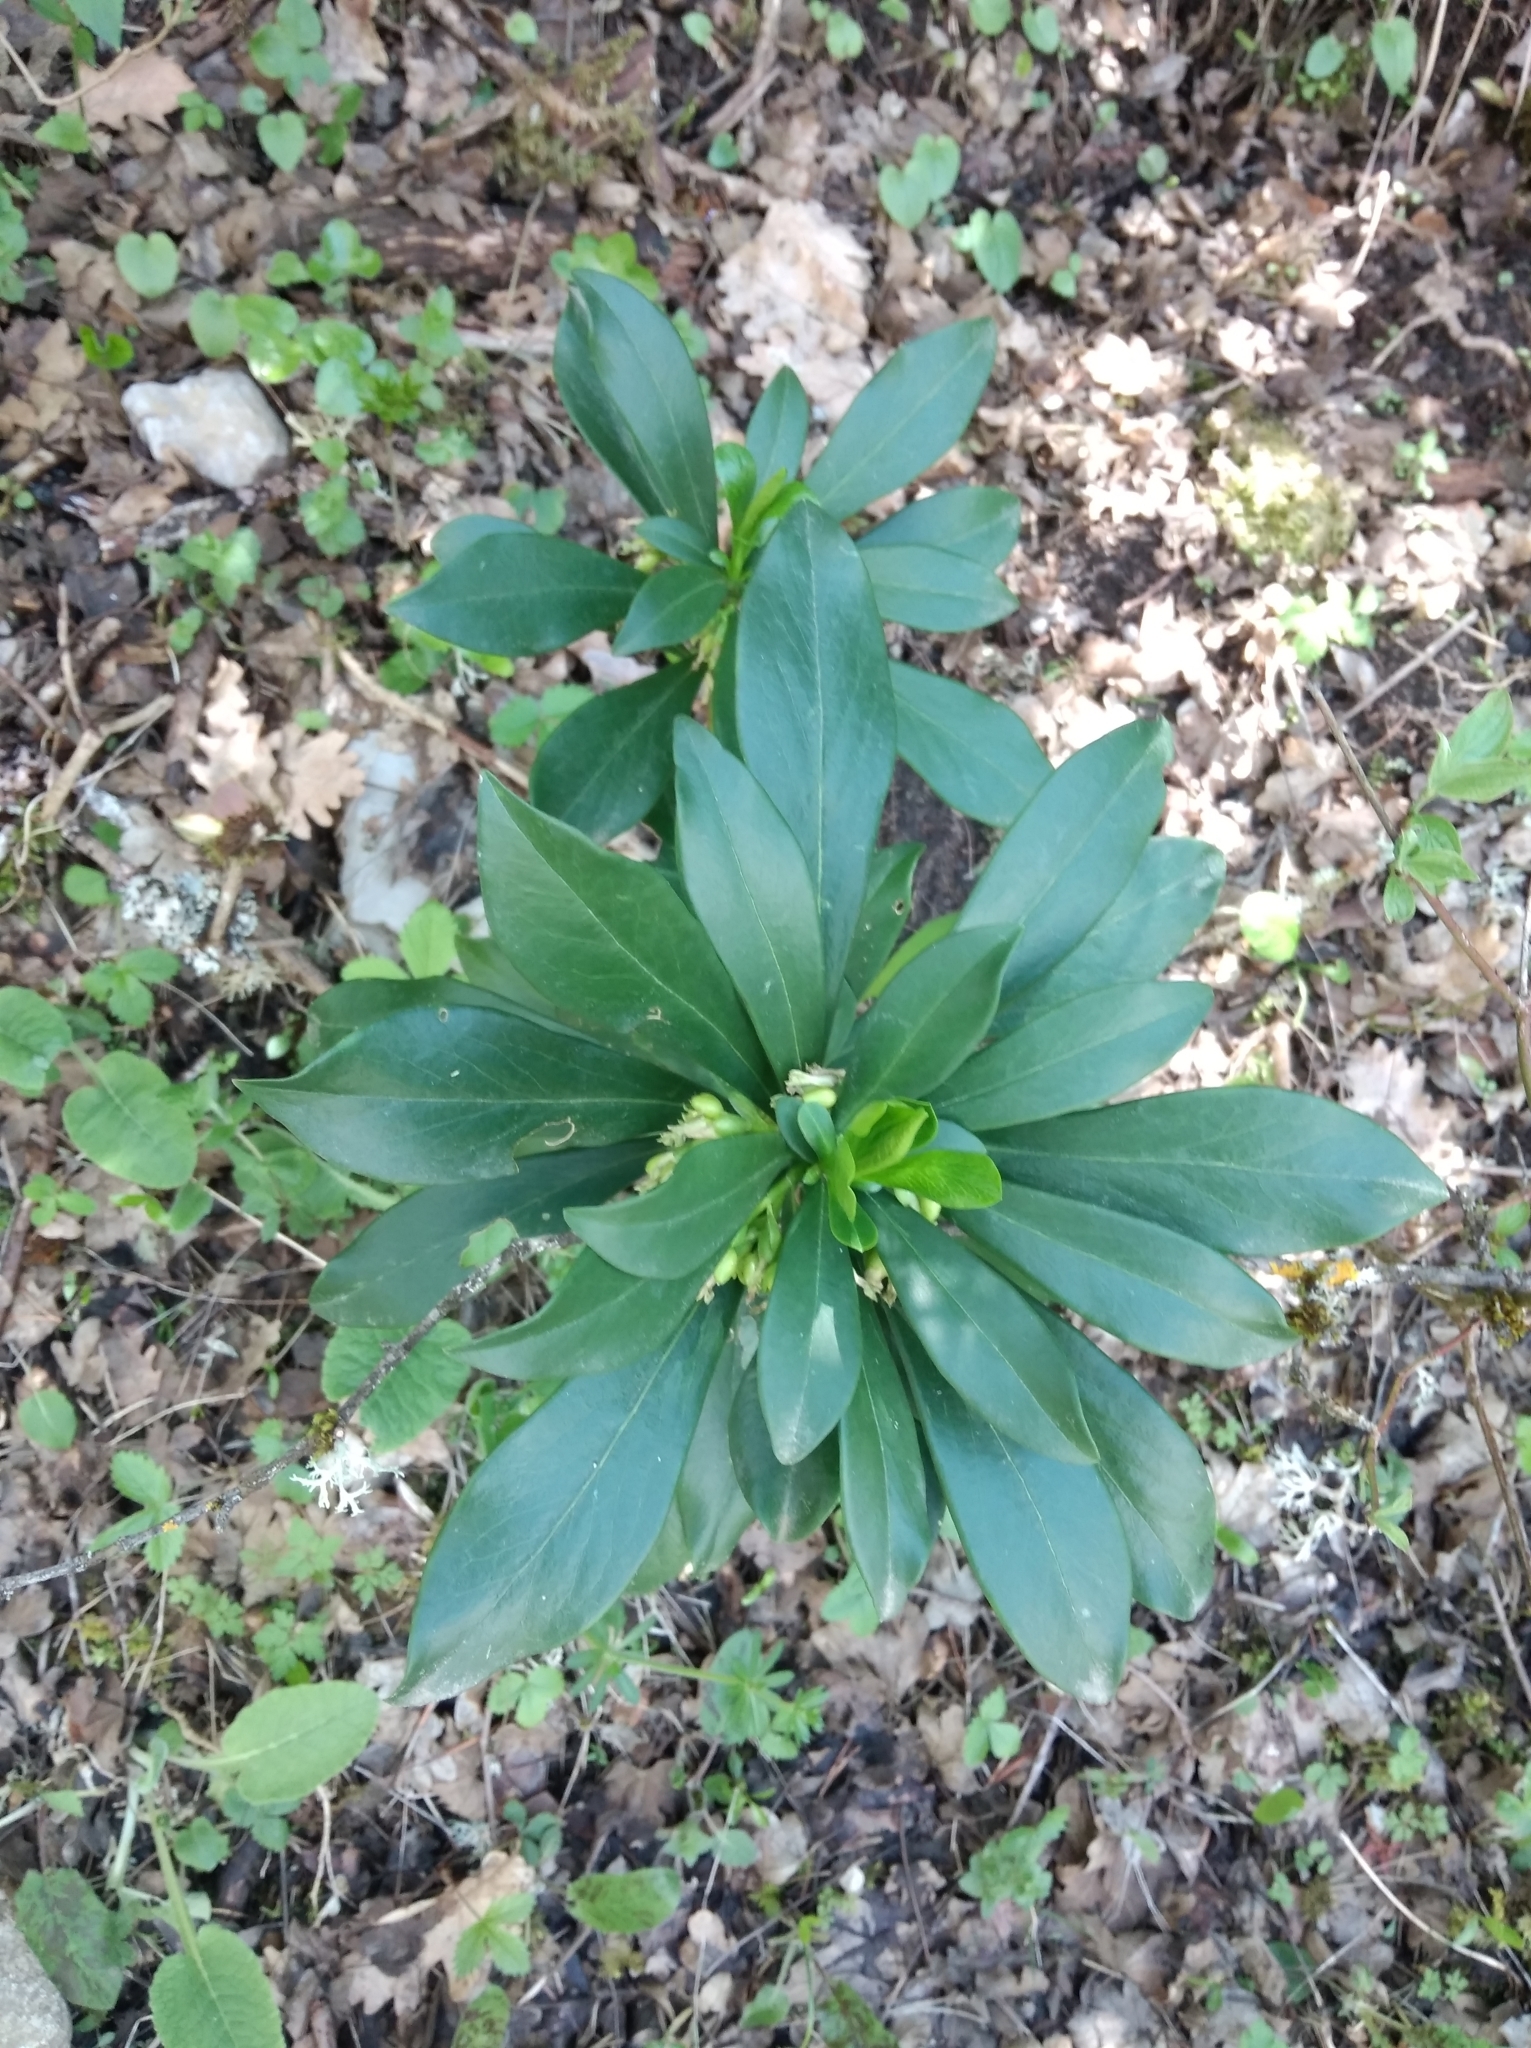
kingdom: Plantae
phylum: Tracheophyta
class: Magnoliopsida
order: Malvales
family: Thymelaeaceae
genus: Daphne
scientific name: Daphne laureola
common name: Spurge-laurel
